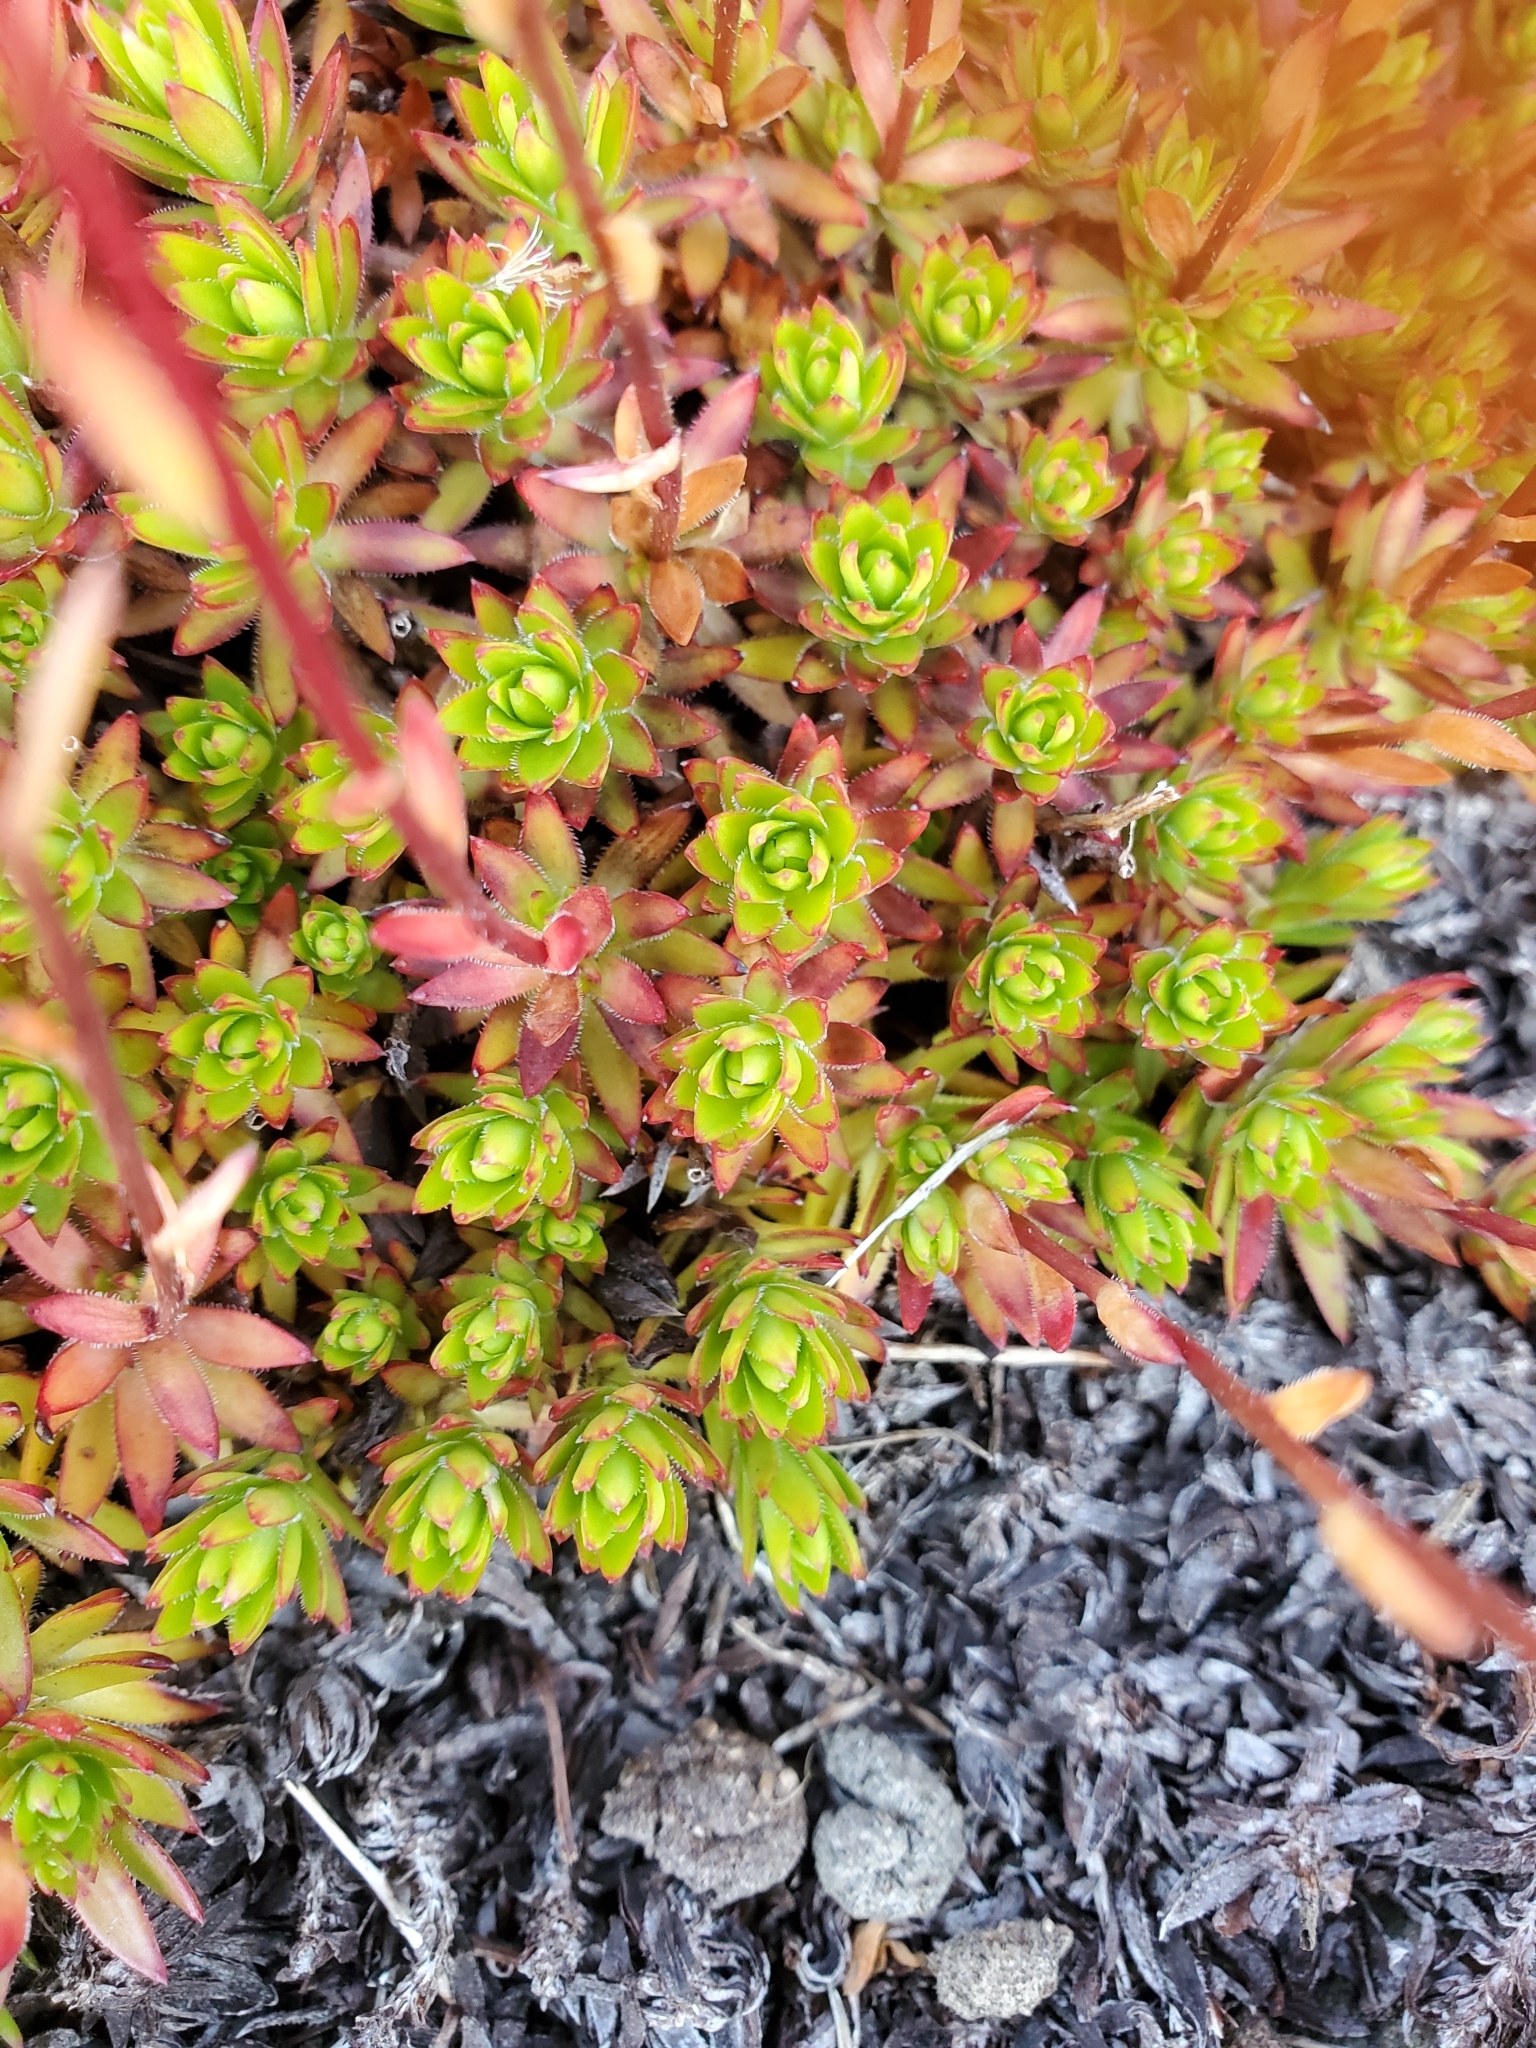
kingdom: Plantae
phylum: Tracheophyta
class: Magnoliopsida
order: Saxifragales
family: Saxifragaceae
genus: Saxifraga
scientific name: Saxifraga bronchialis
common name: Matted saxifrage
